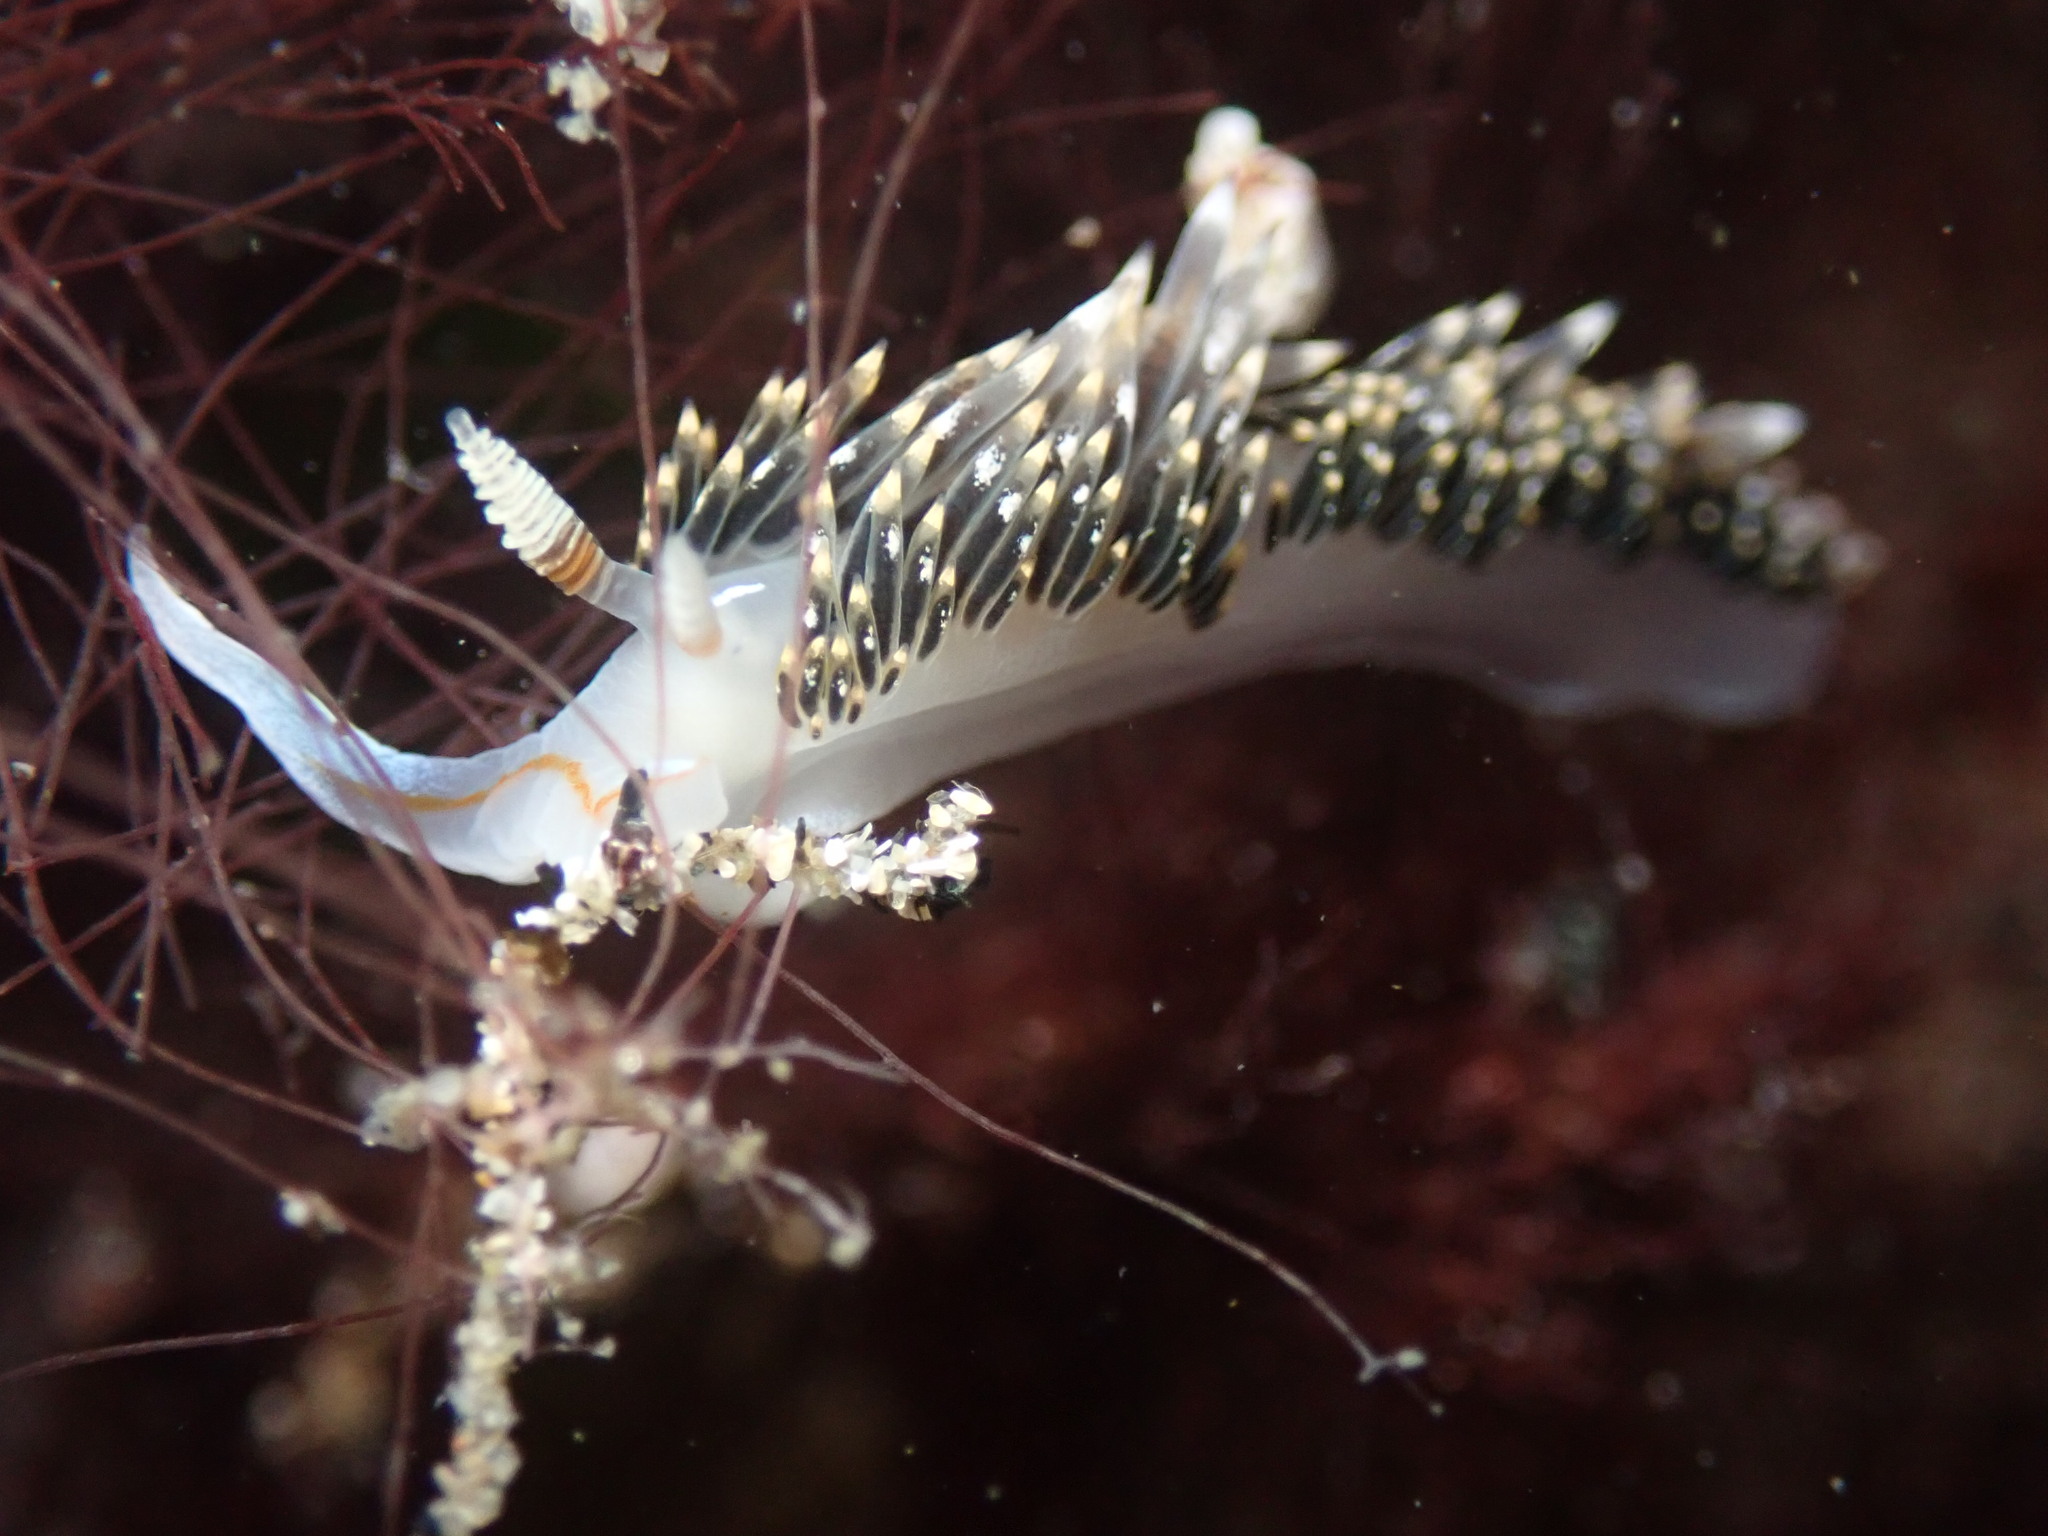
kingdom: Animalia
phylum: Mollusca
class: Gastropoda
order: Nudibranchia
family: Facelinidae
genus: Phidiana
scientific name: Phidiana hiltoni
